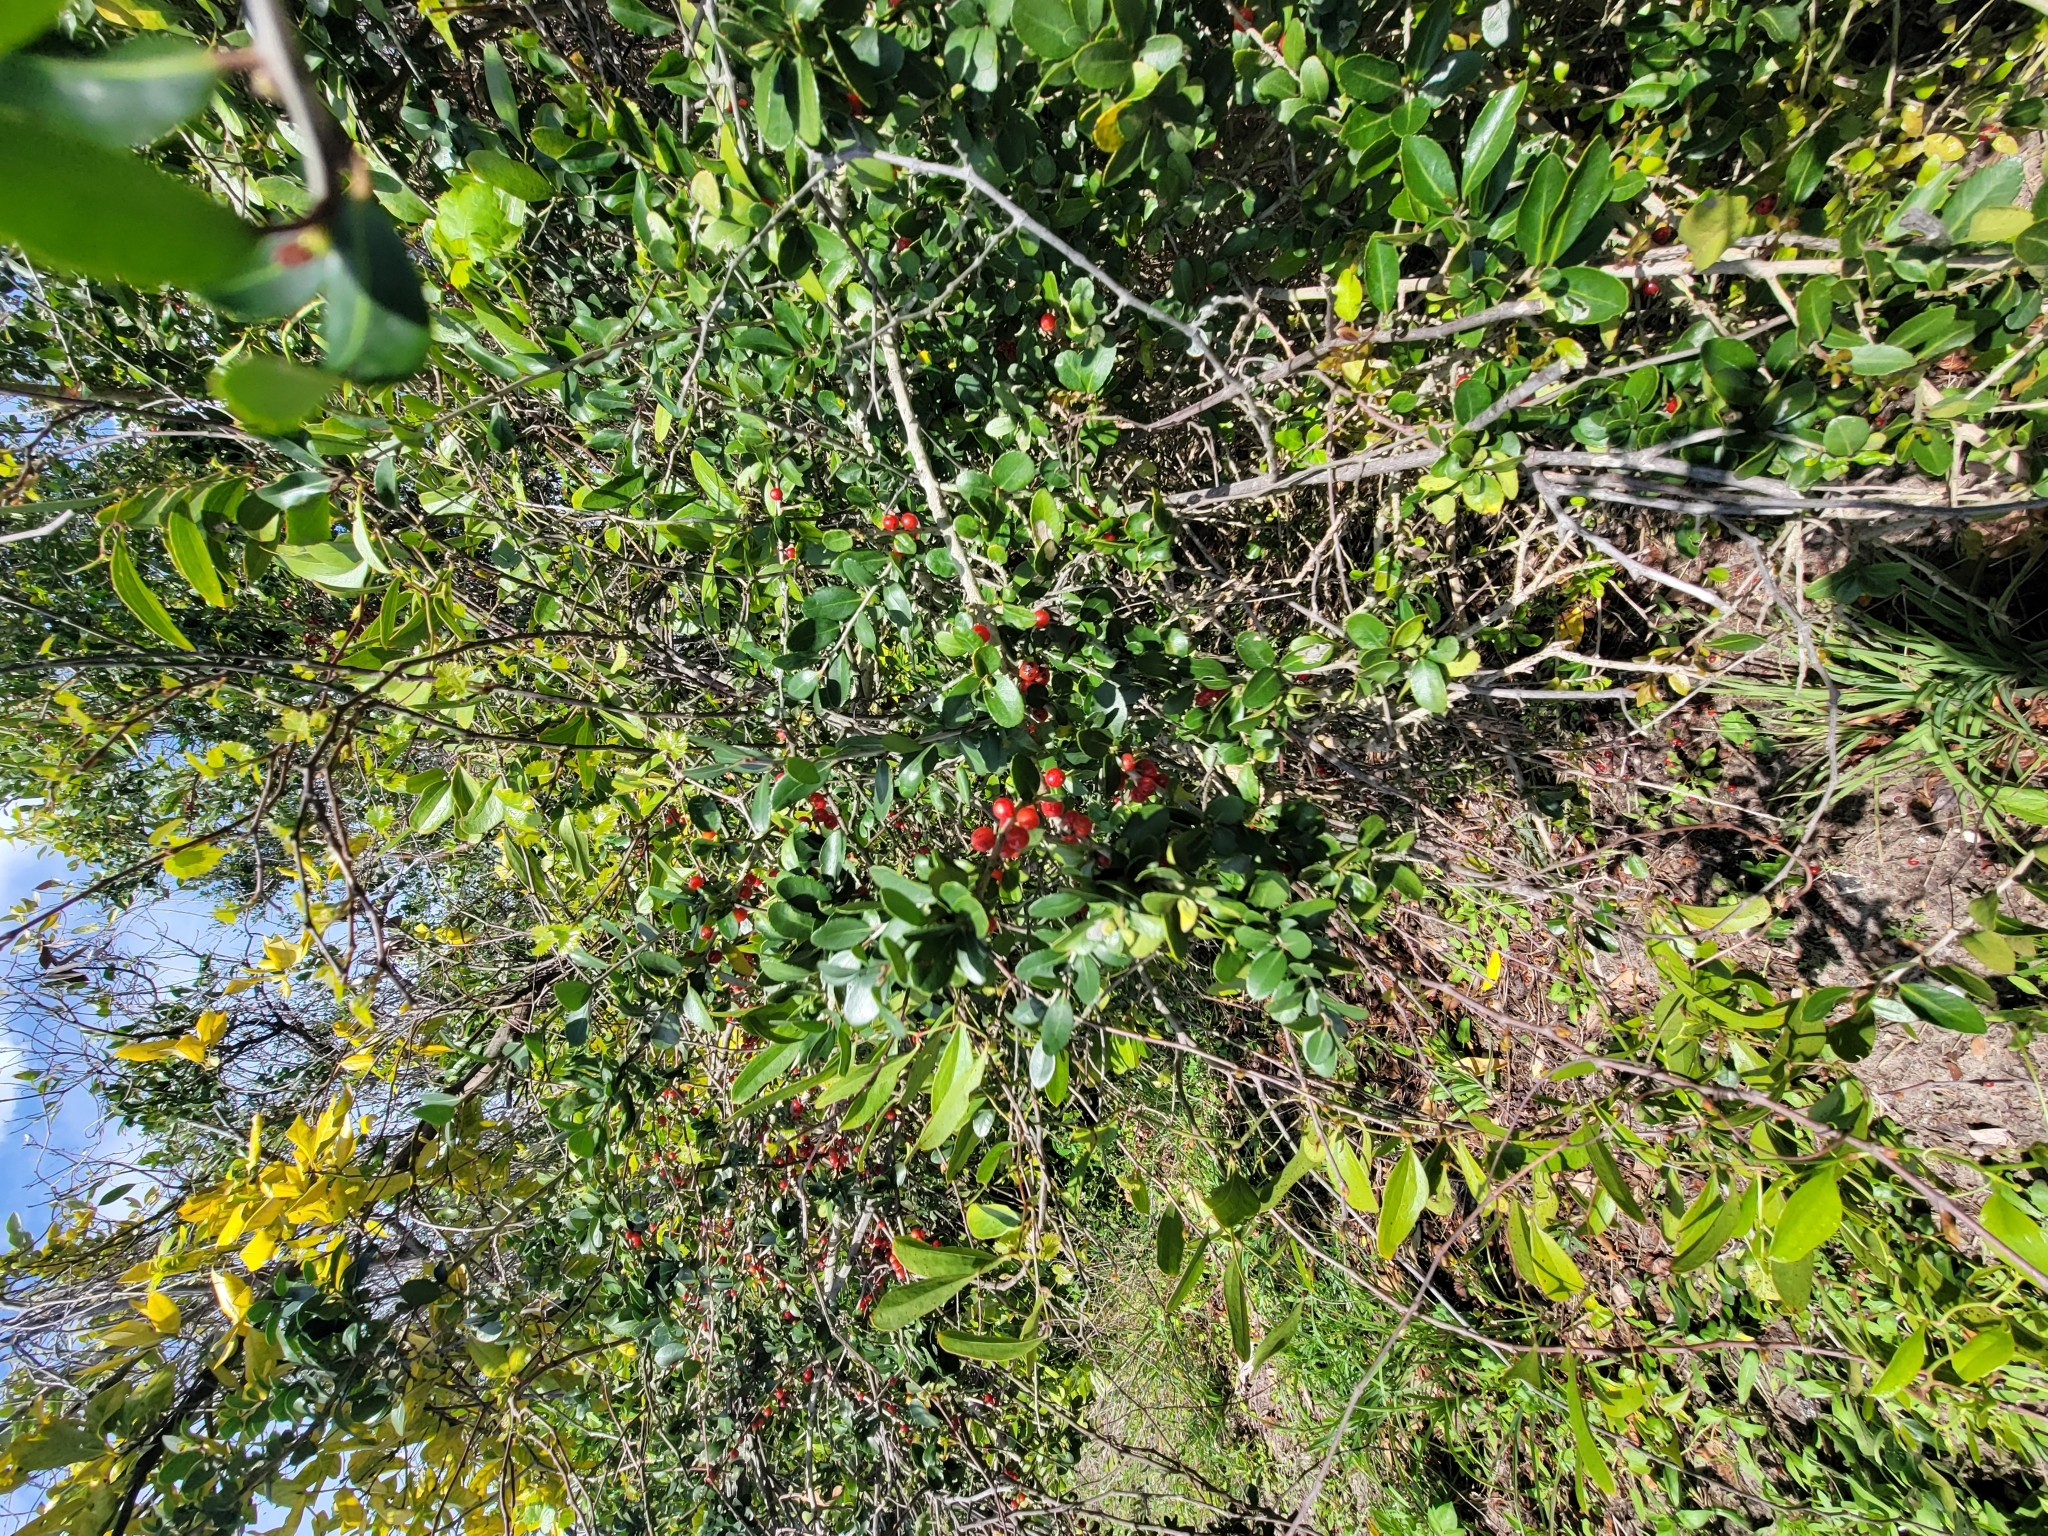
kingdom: Plantae
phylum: Tracheophyta
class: Magnoliopsida
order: Aquifoliales
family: Aquifoliaceae
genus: Ilex
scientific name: Ilex vomitoria
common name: Yaupon holly
